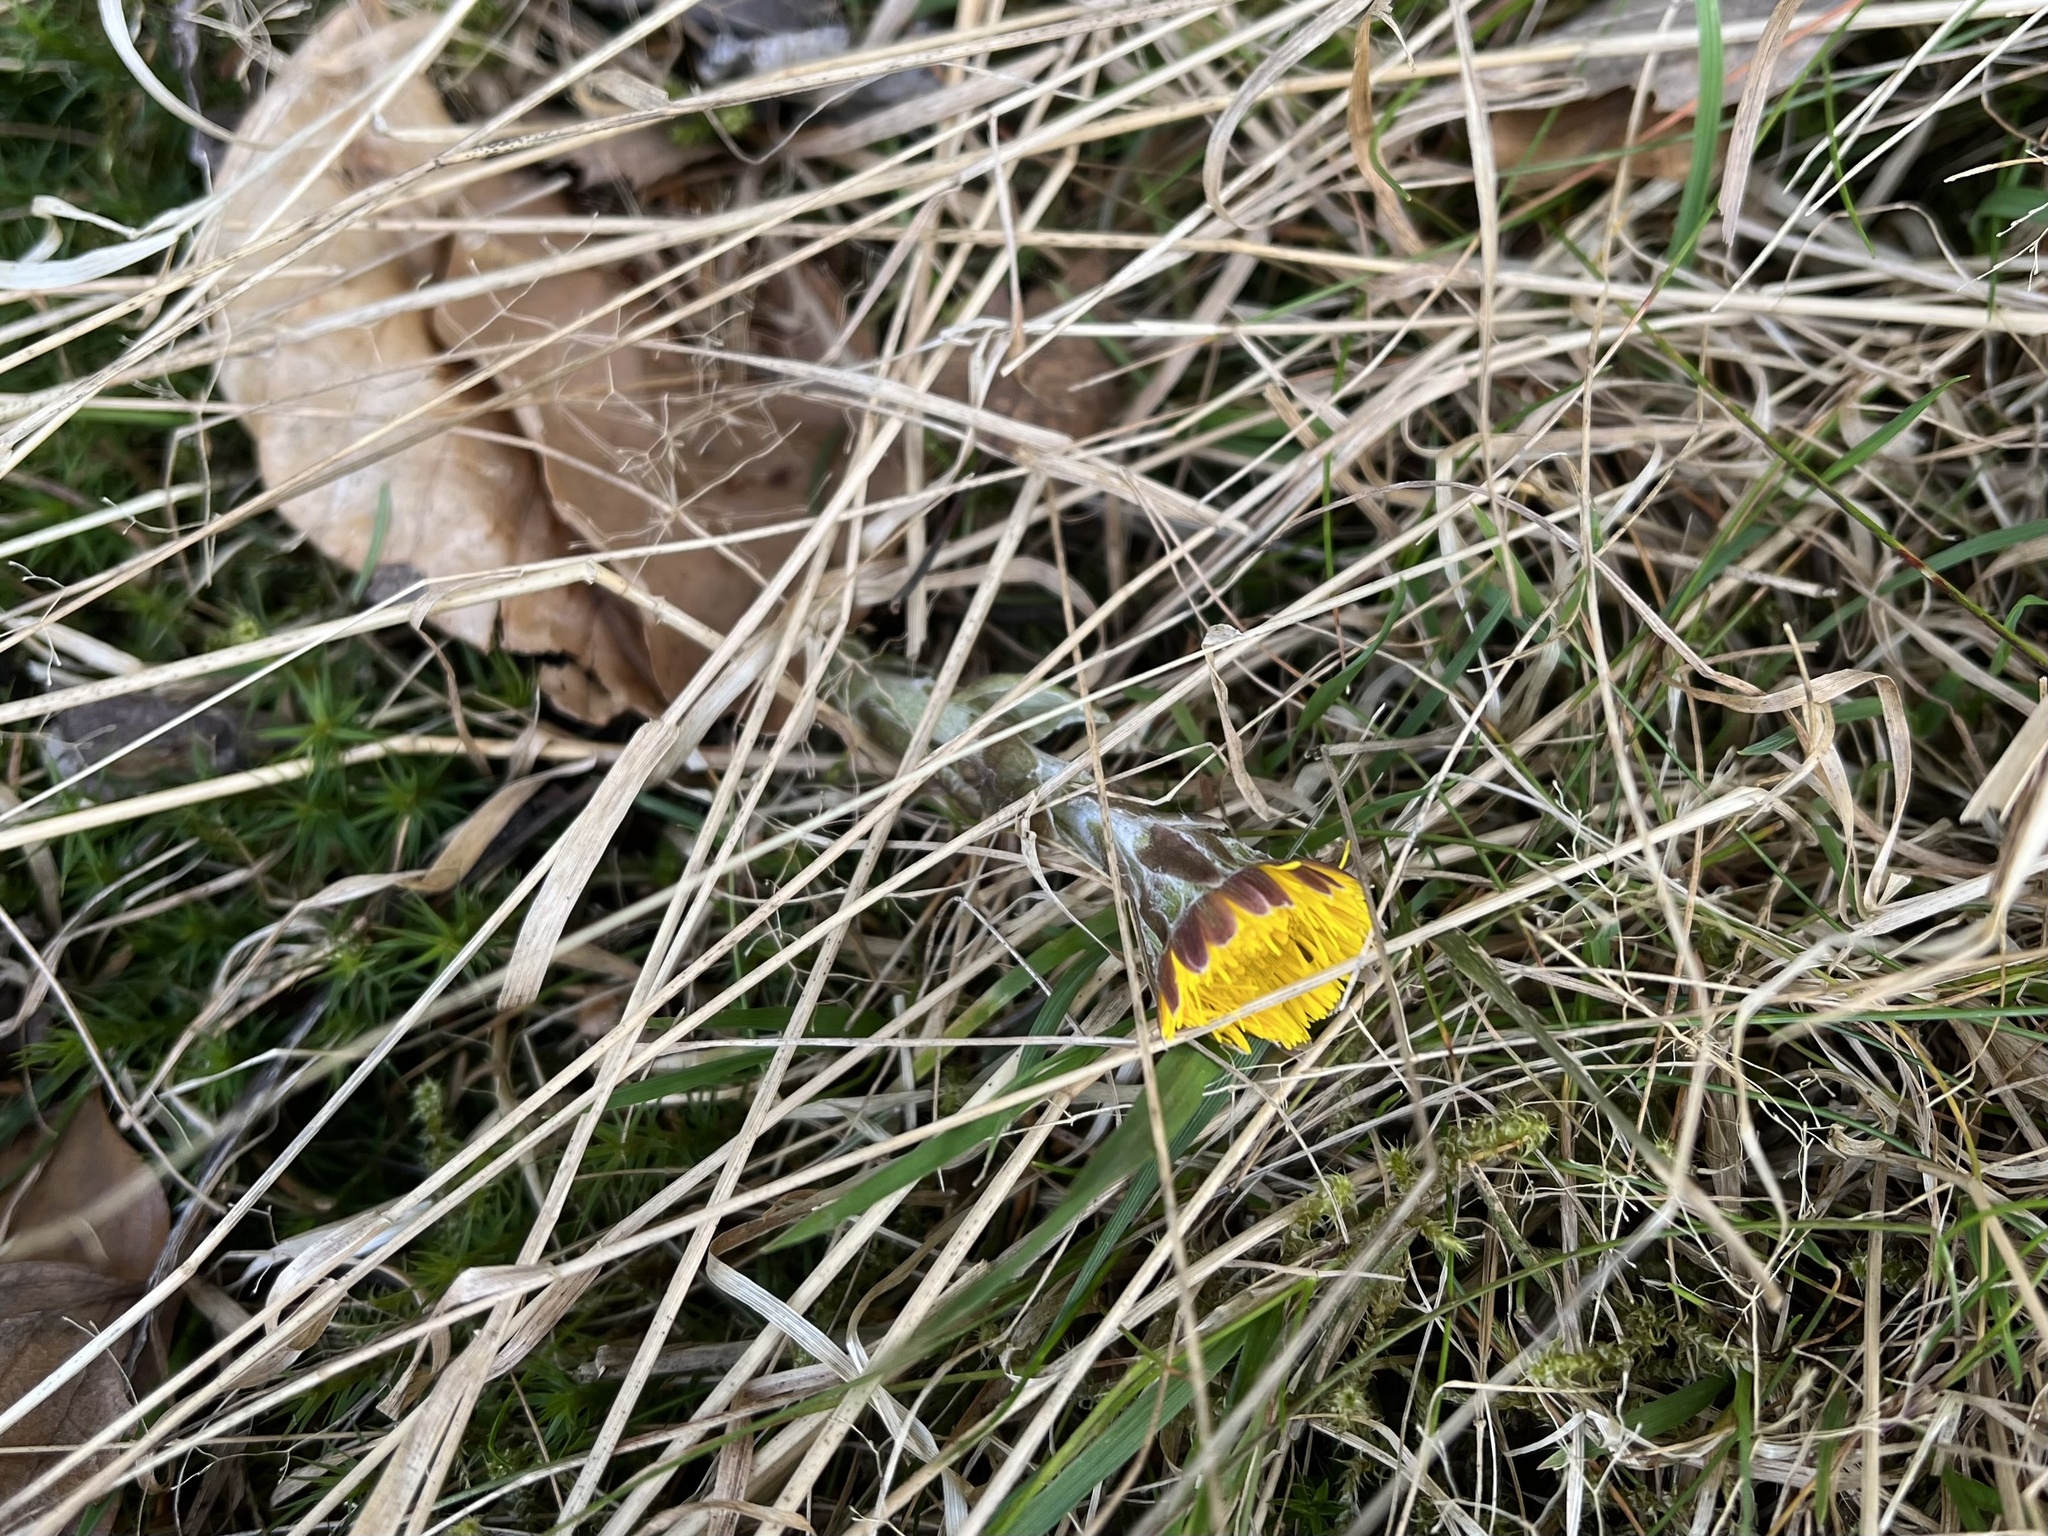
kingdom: Plantae
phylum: Tracheophyta
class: Magnoliopsida
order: Asterales
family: Asteraceae
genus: Tussilago
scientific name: Tussilago farfara
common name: Coltsfoot
